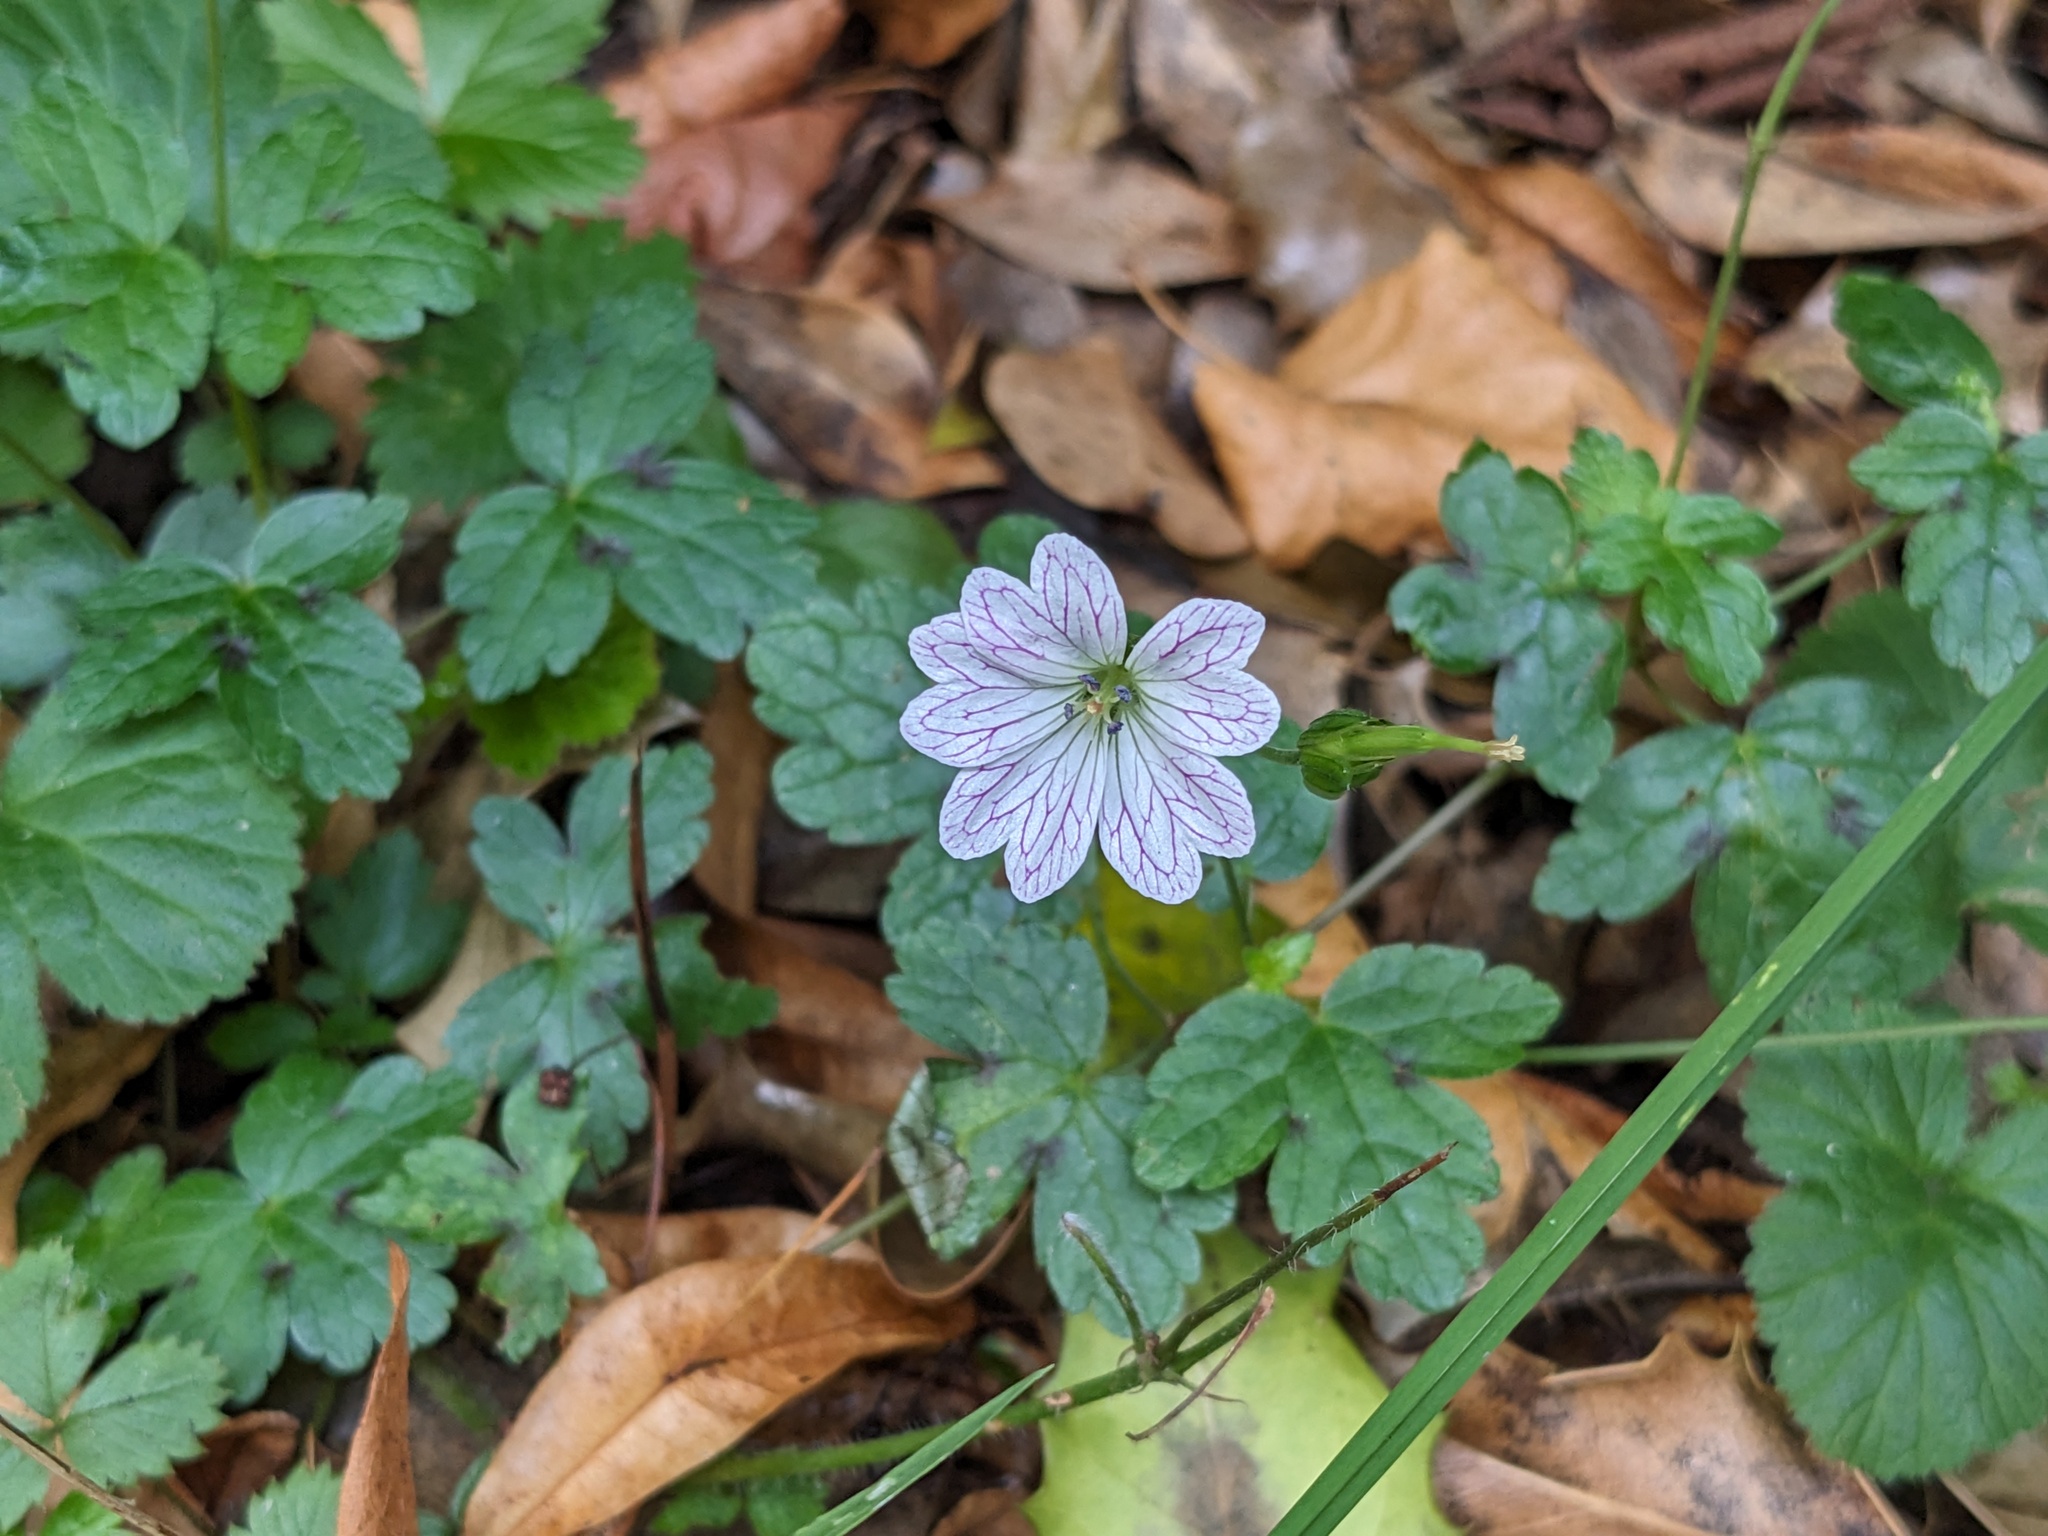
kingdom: Plantae
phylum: Tracheophyta
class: Magnoliopsida
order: Geraniales
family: Geraniaceae
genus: Geranium
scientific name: Geranium versicolor
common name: Pencilled crane's-bill
